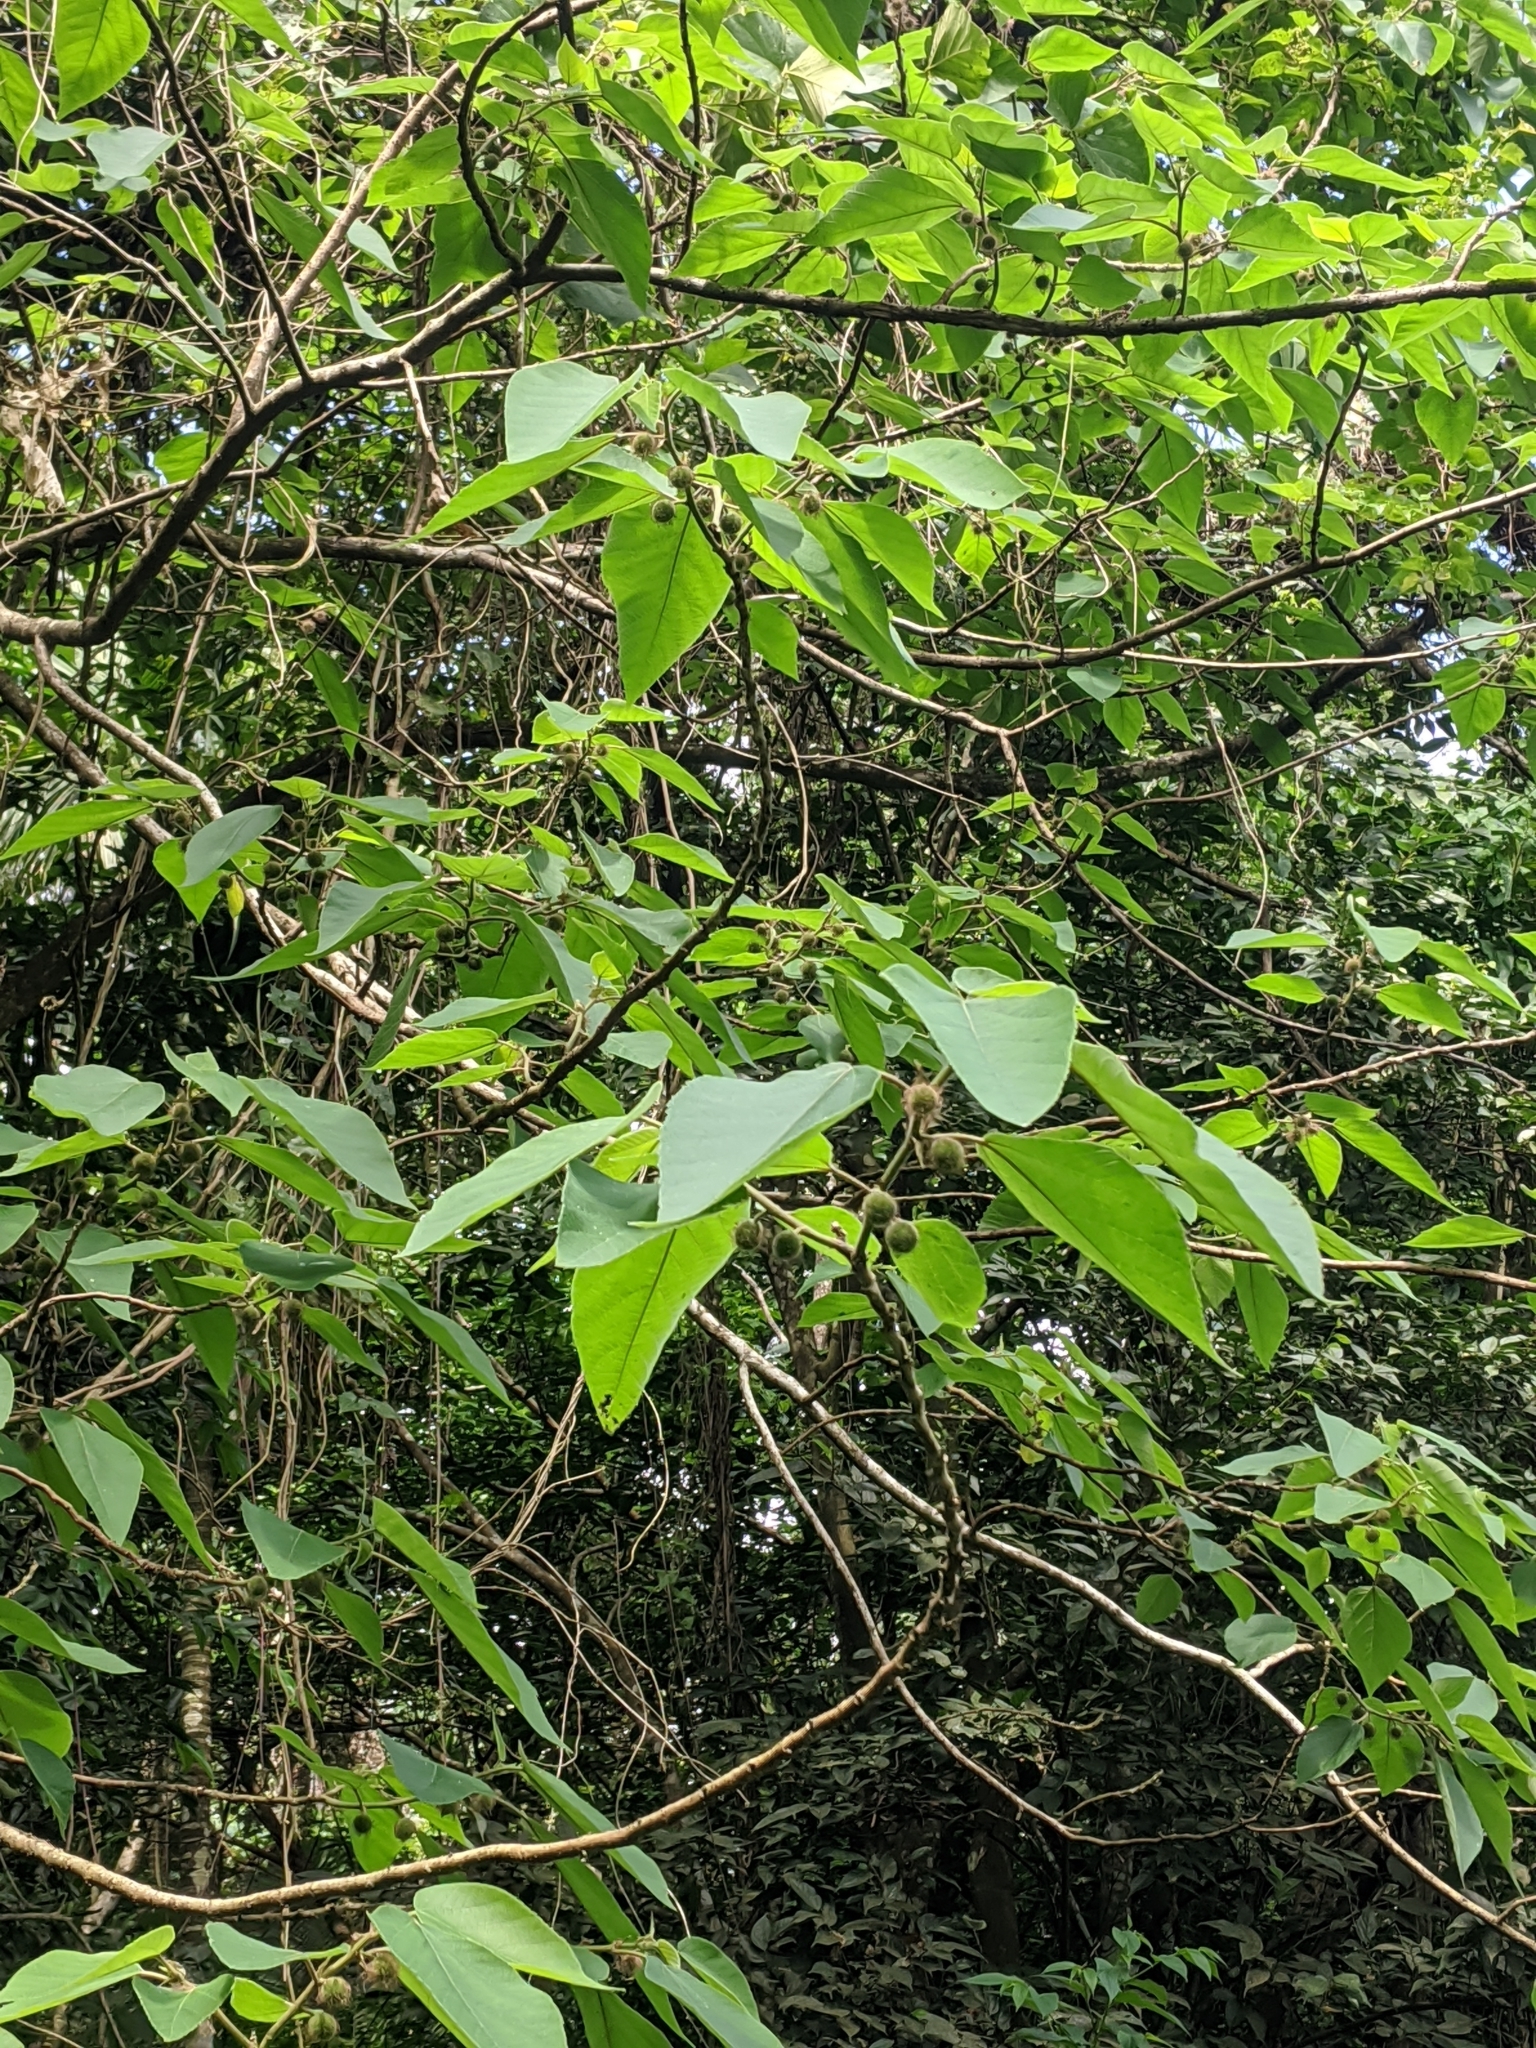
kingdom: Plantae
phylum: Tracheophyta
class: Magnoliopsida
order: Rosales
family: Moraceae
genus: Broussonetia
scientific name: Broussonetia papyrifera
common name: Paper mulberry
